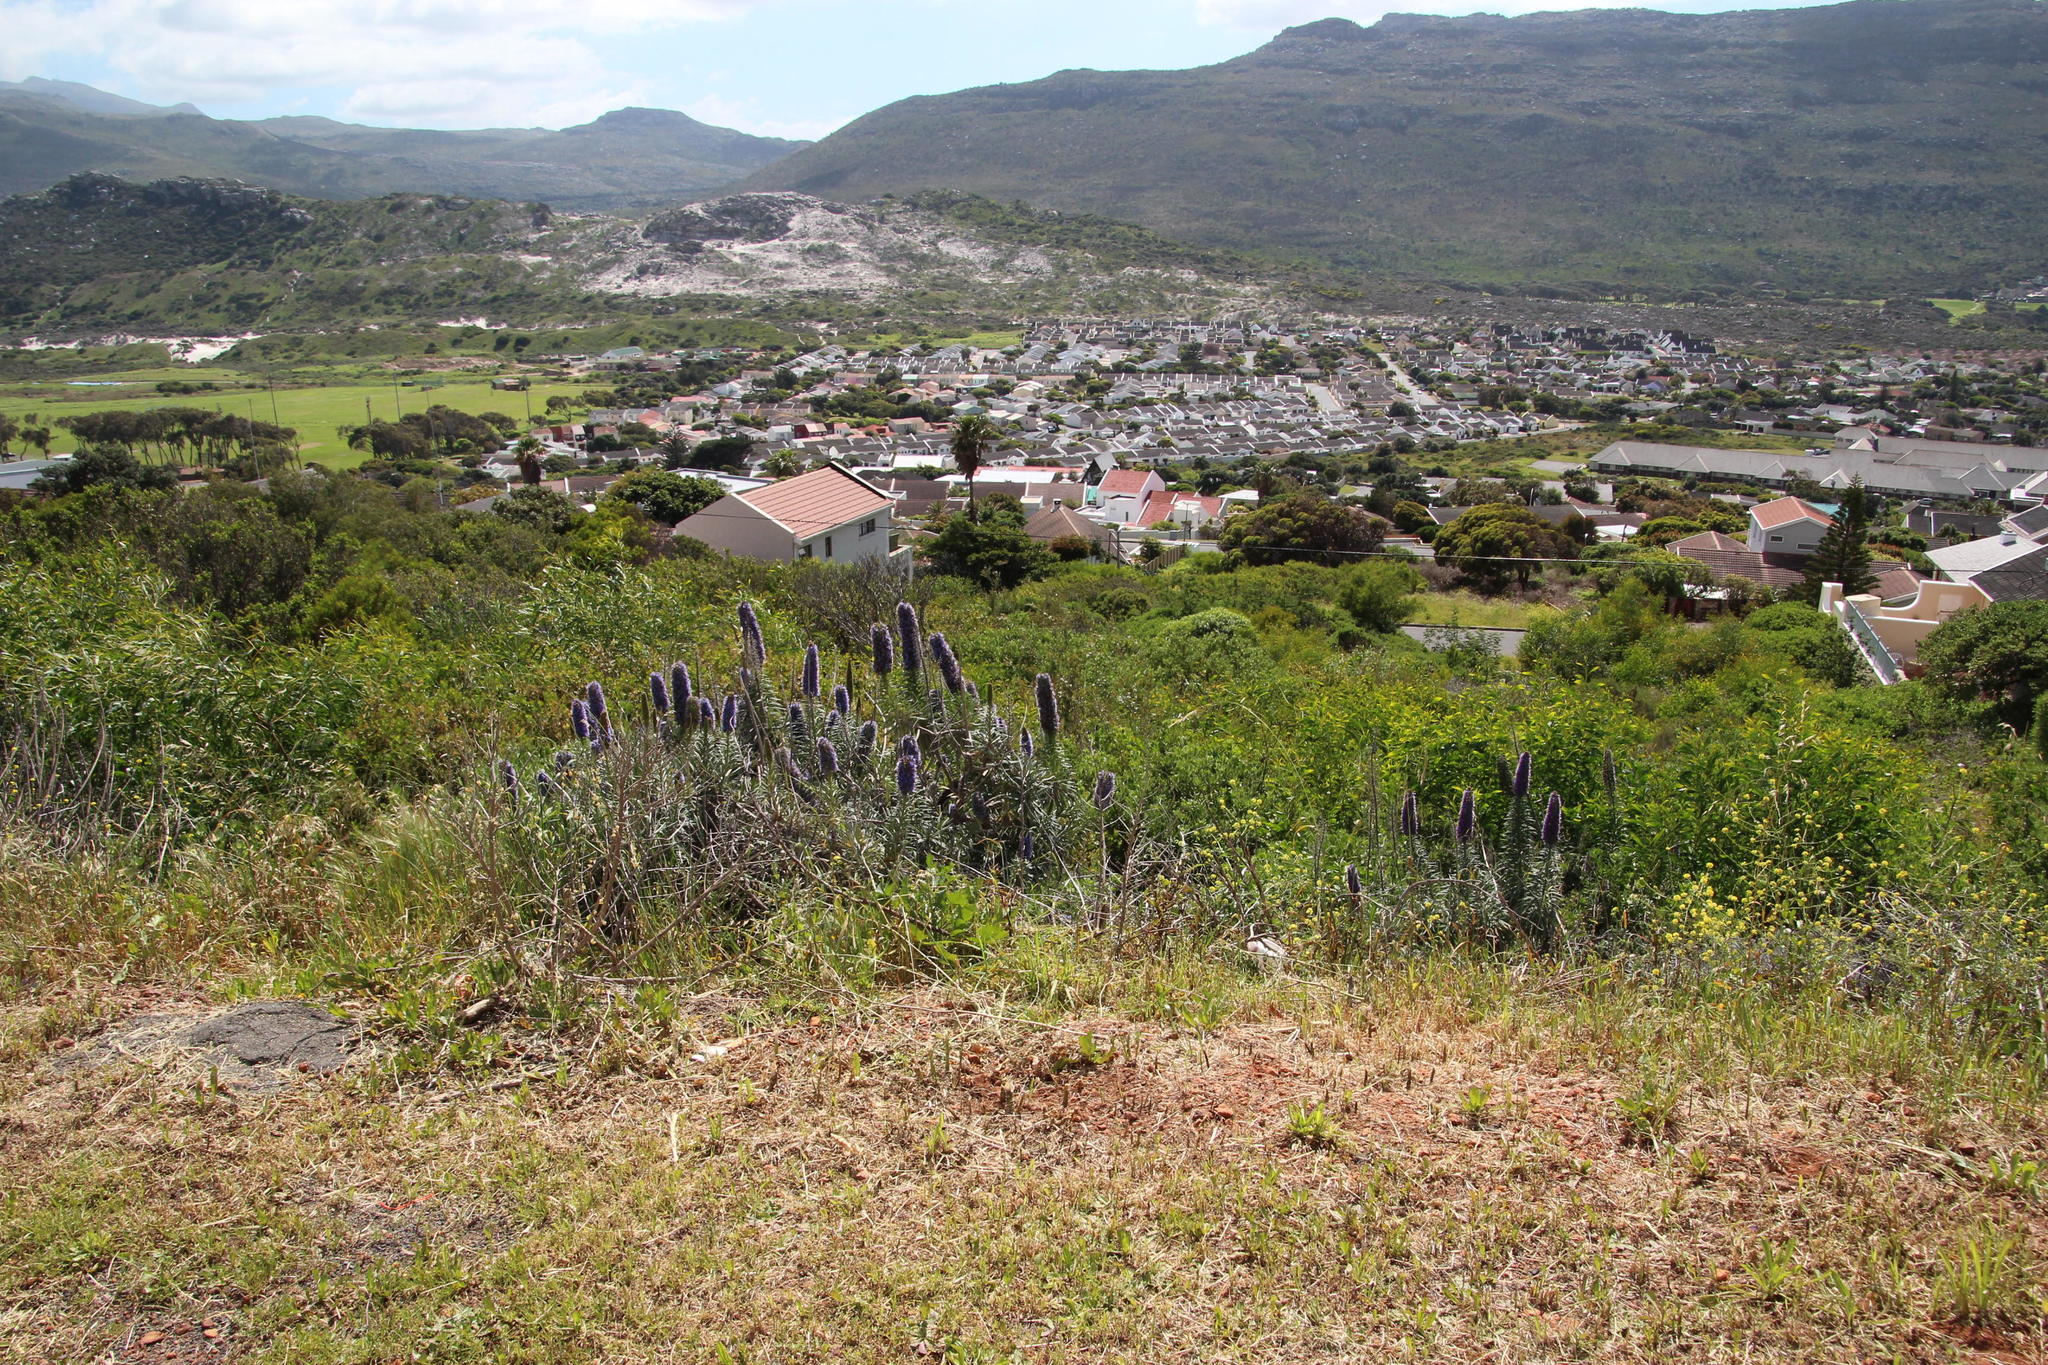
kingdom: Plantae
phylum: Tracheophyta
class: Magnoliopsida
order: Boraginales
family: Boraginaceae
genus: Echium
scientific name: Echium candicans
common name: Pride of madeira
